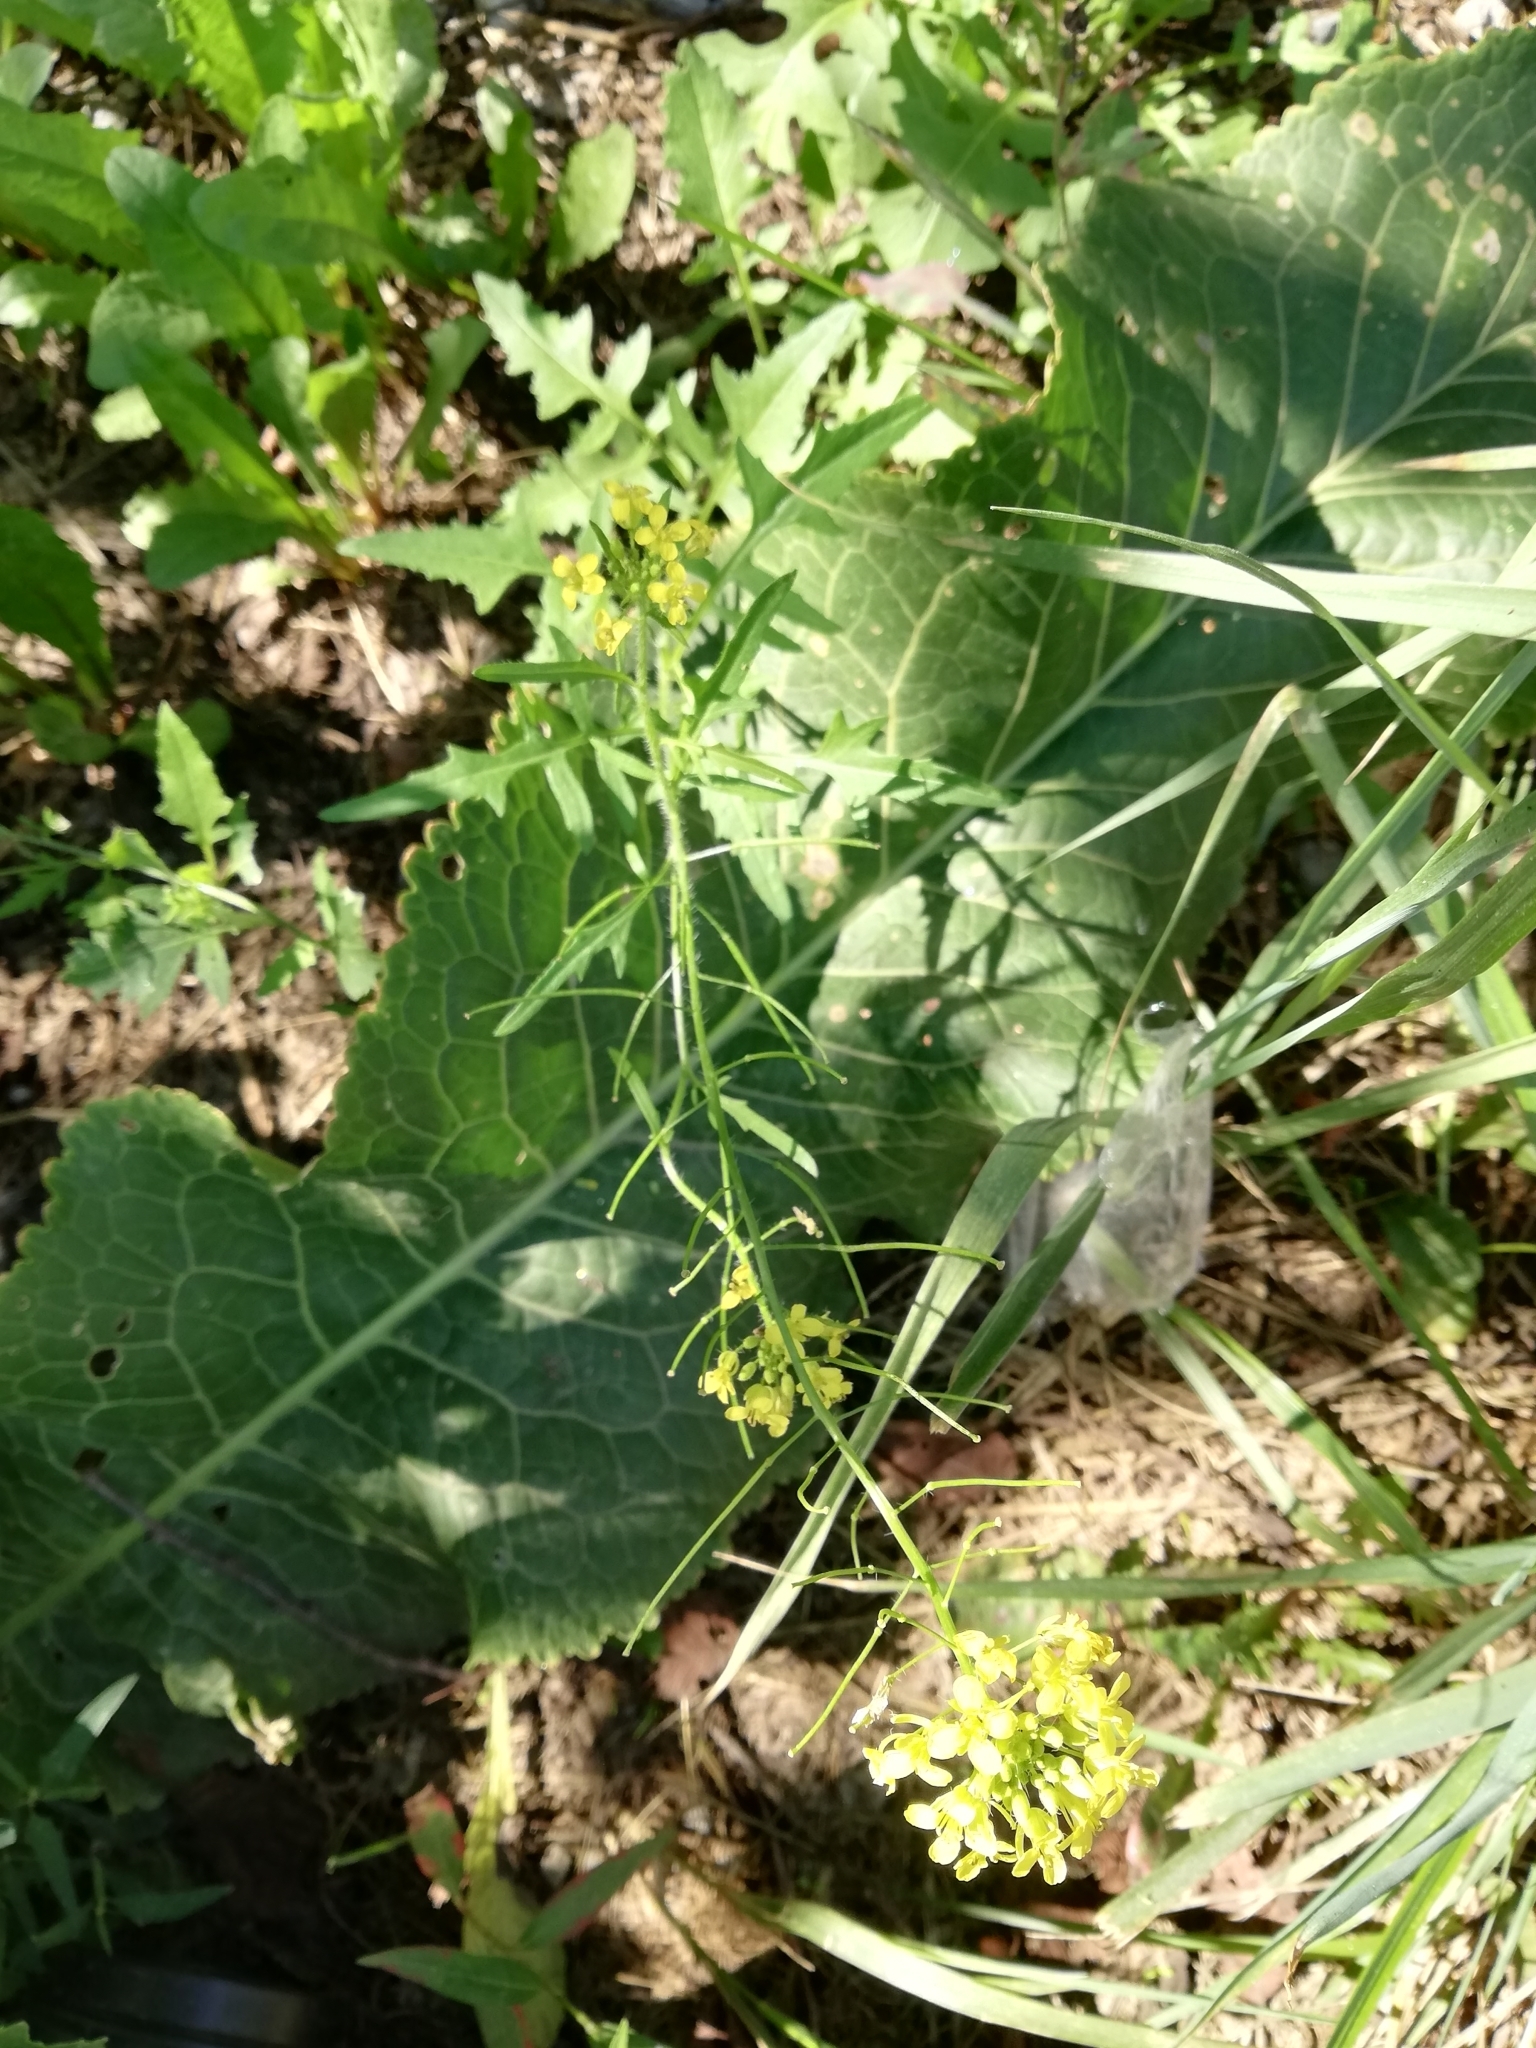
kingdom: Plantae
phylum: Tracheophyta
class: Magnoliopsida
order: Brassicales
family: Brassicaceae
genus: Sisymbrium
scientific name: Sisymbrium loeselii
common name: False london-rocket
